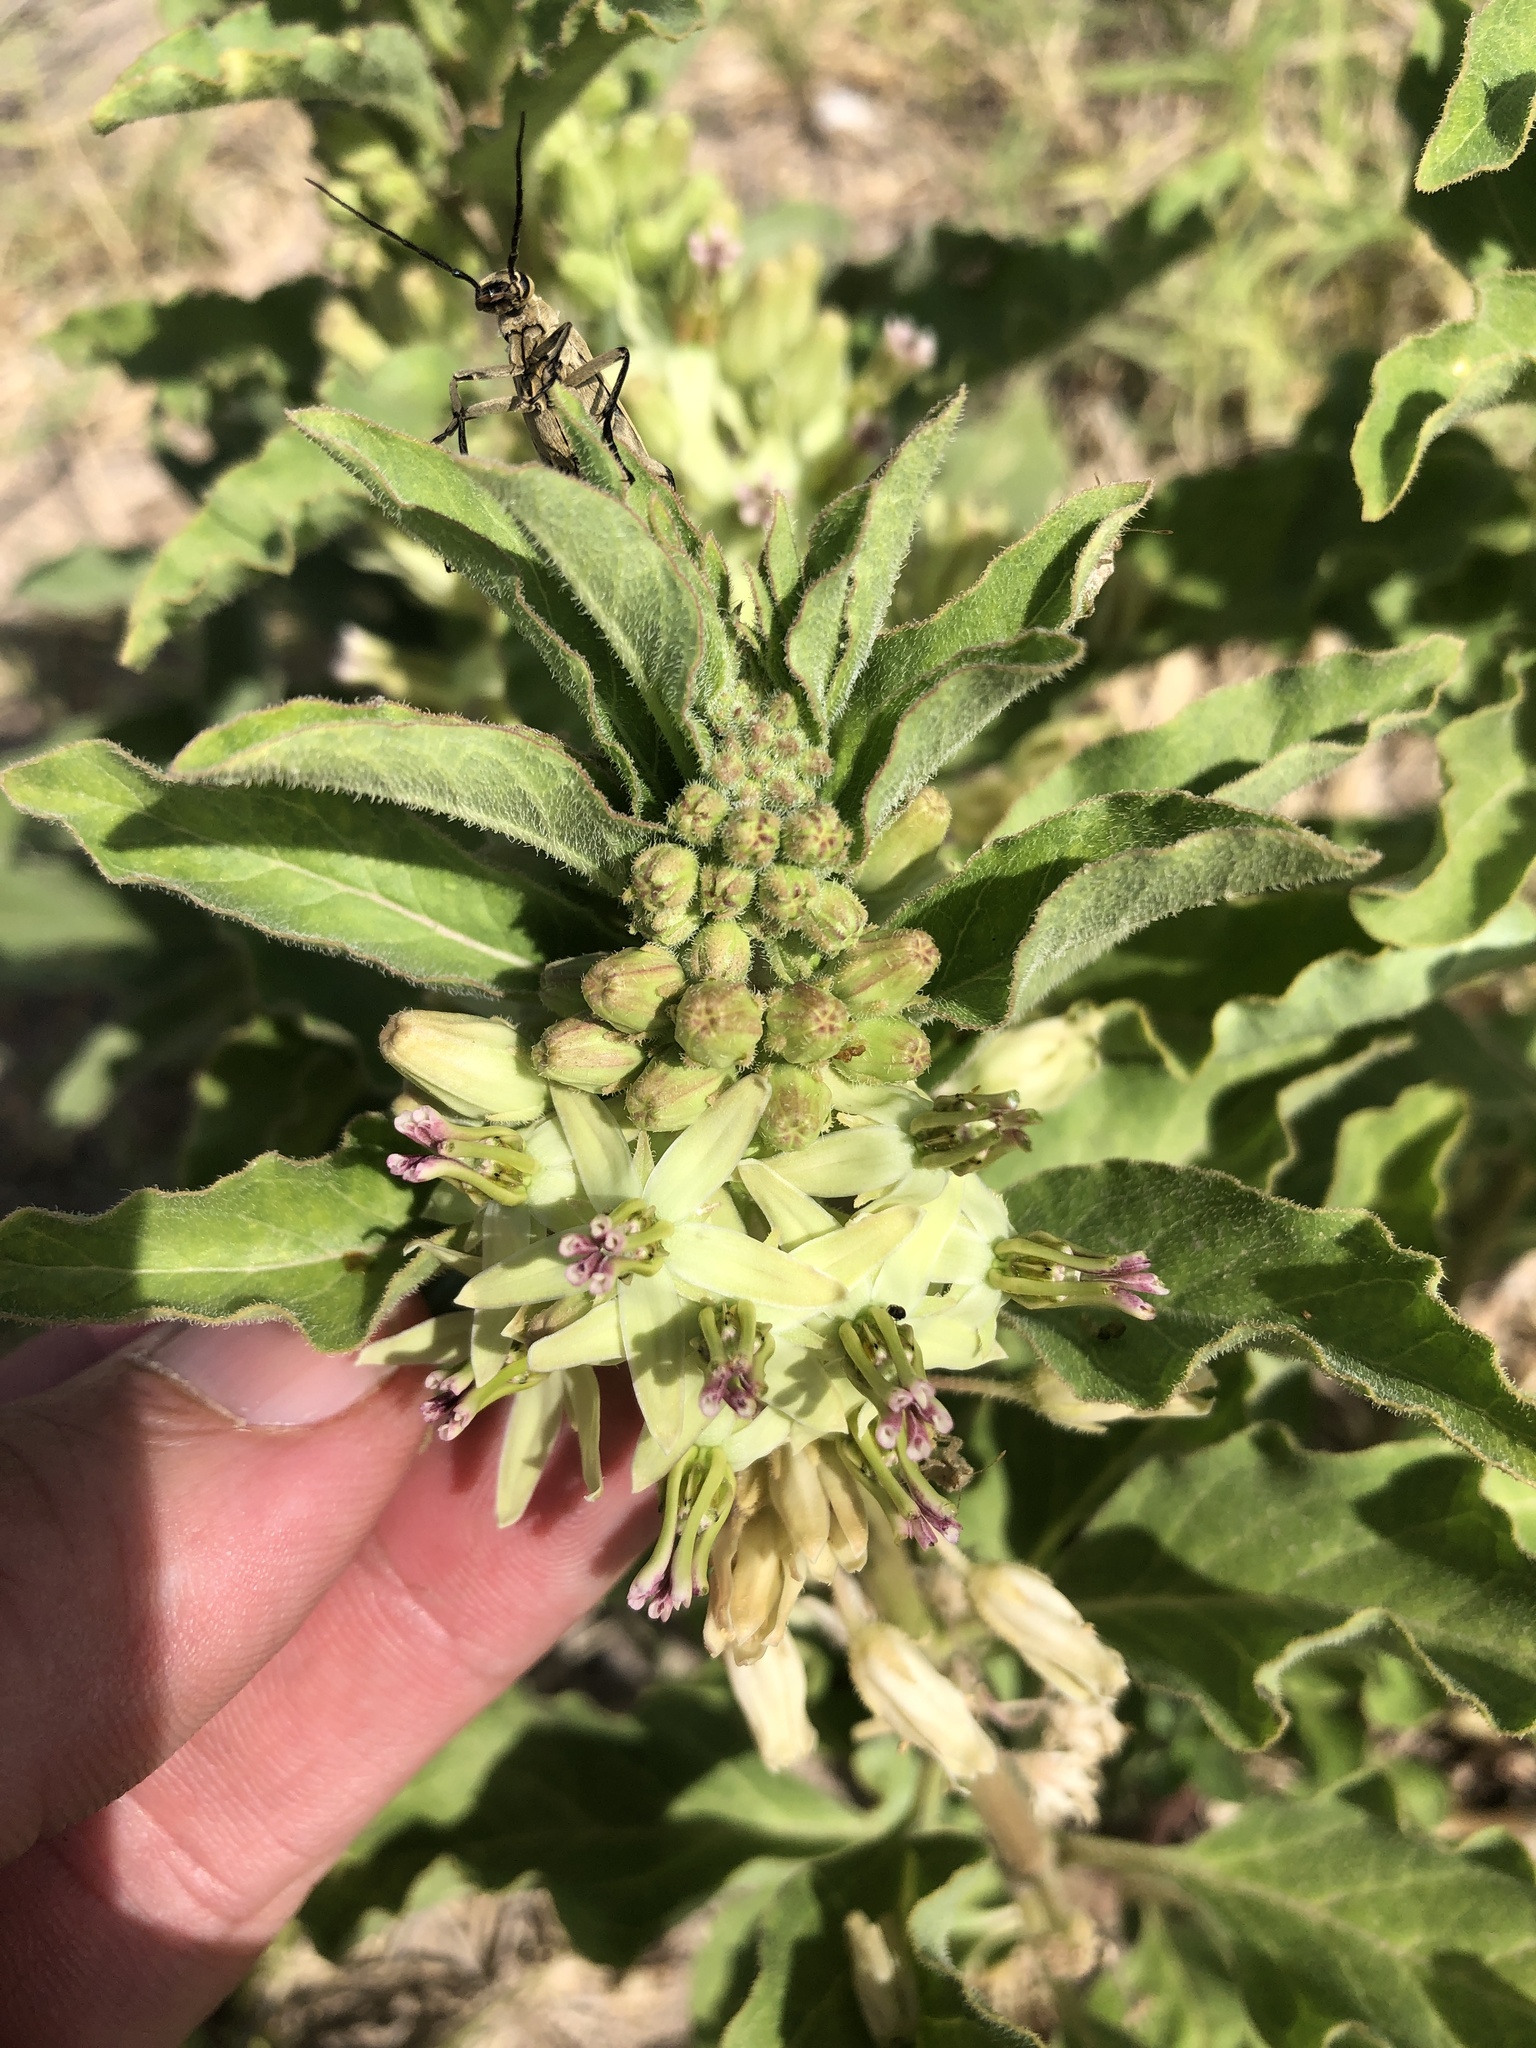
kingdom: Plantae
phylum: Tracheophyta
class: Magnoliopsida
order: Gentianales
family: Apocynaceae
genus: Asclepias
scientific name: Asclepias oenotheroides
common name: Zizotes milkweed
